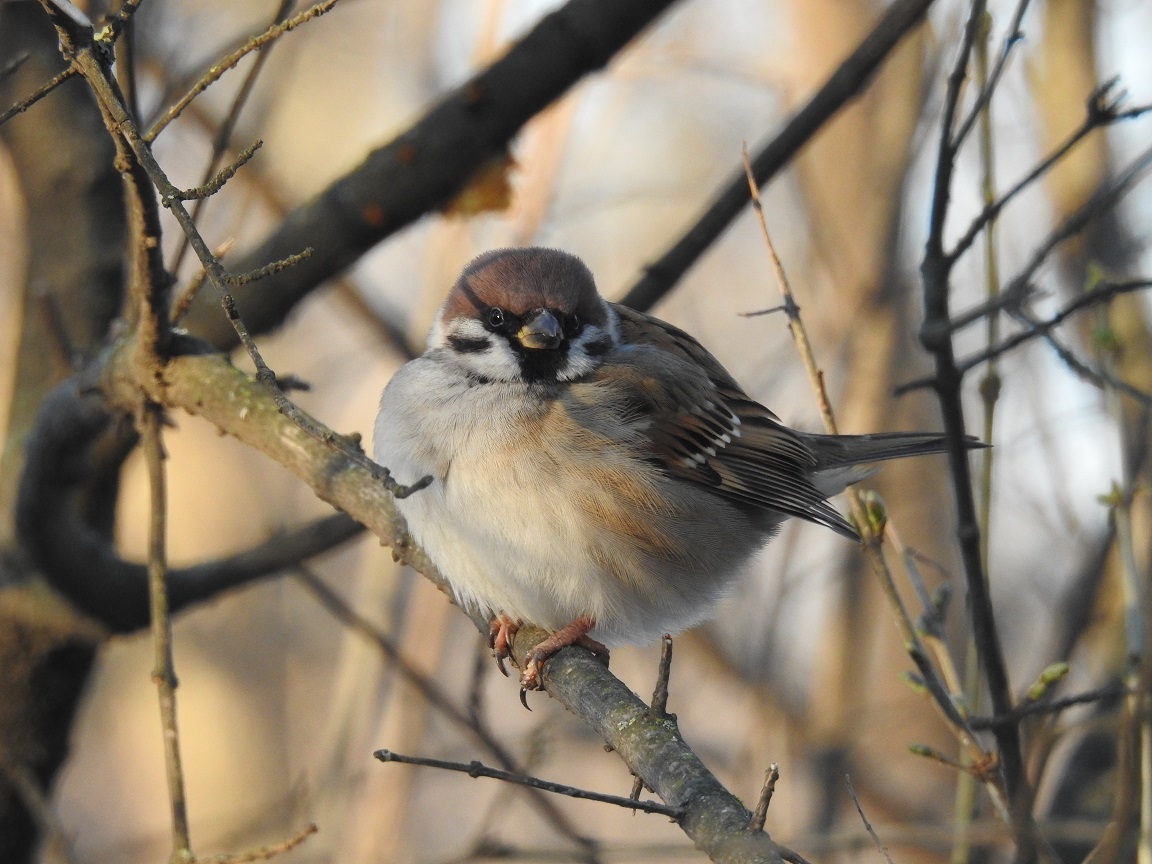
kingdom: Animalia
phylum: Chordata
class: Aves
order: Passeriformes
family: Passeridae
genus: Passer
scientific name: Passer montanus
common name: Eurasian tree sparrow
